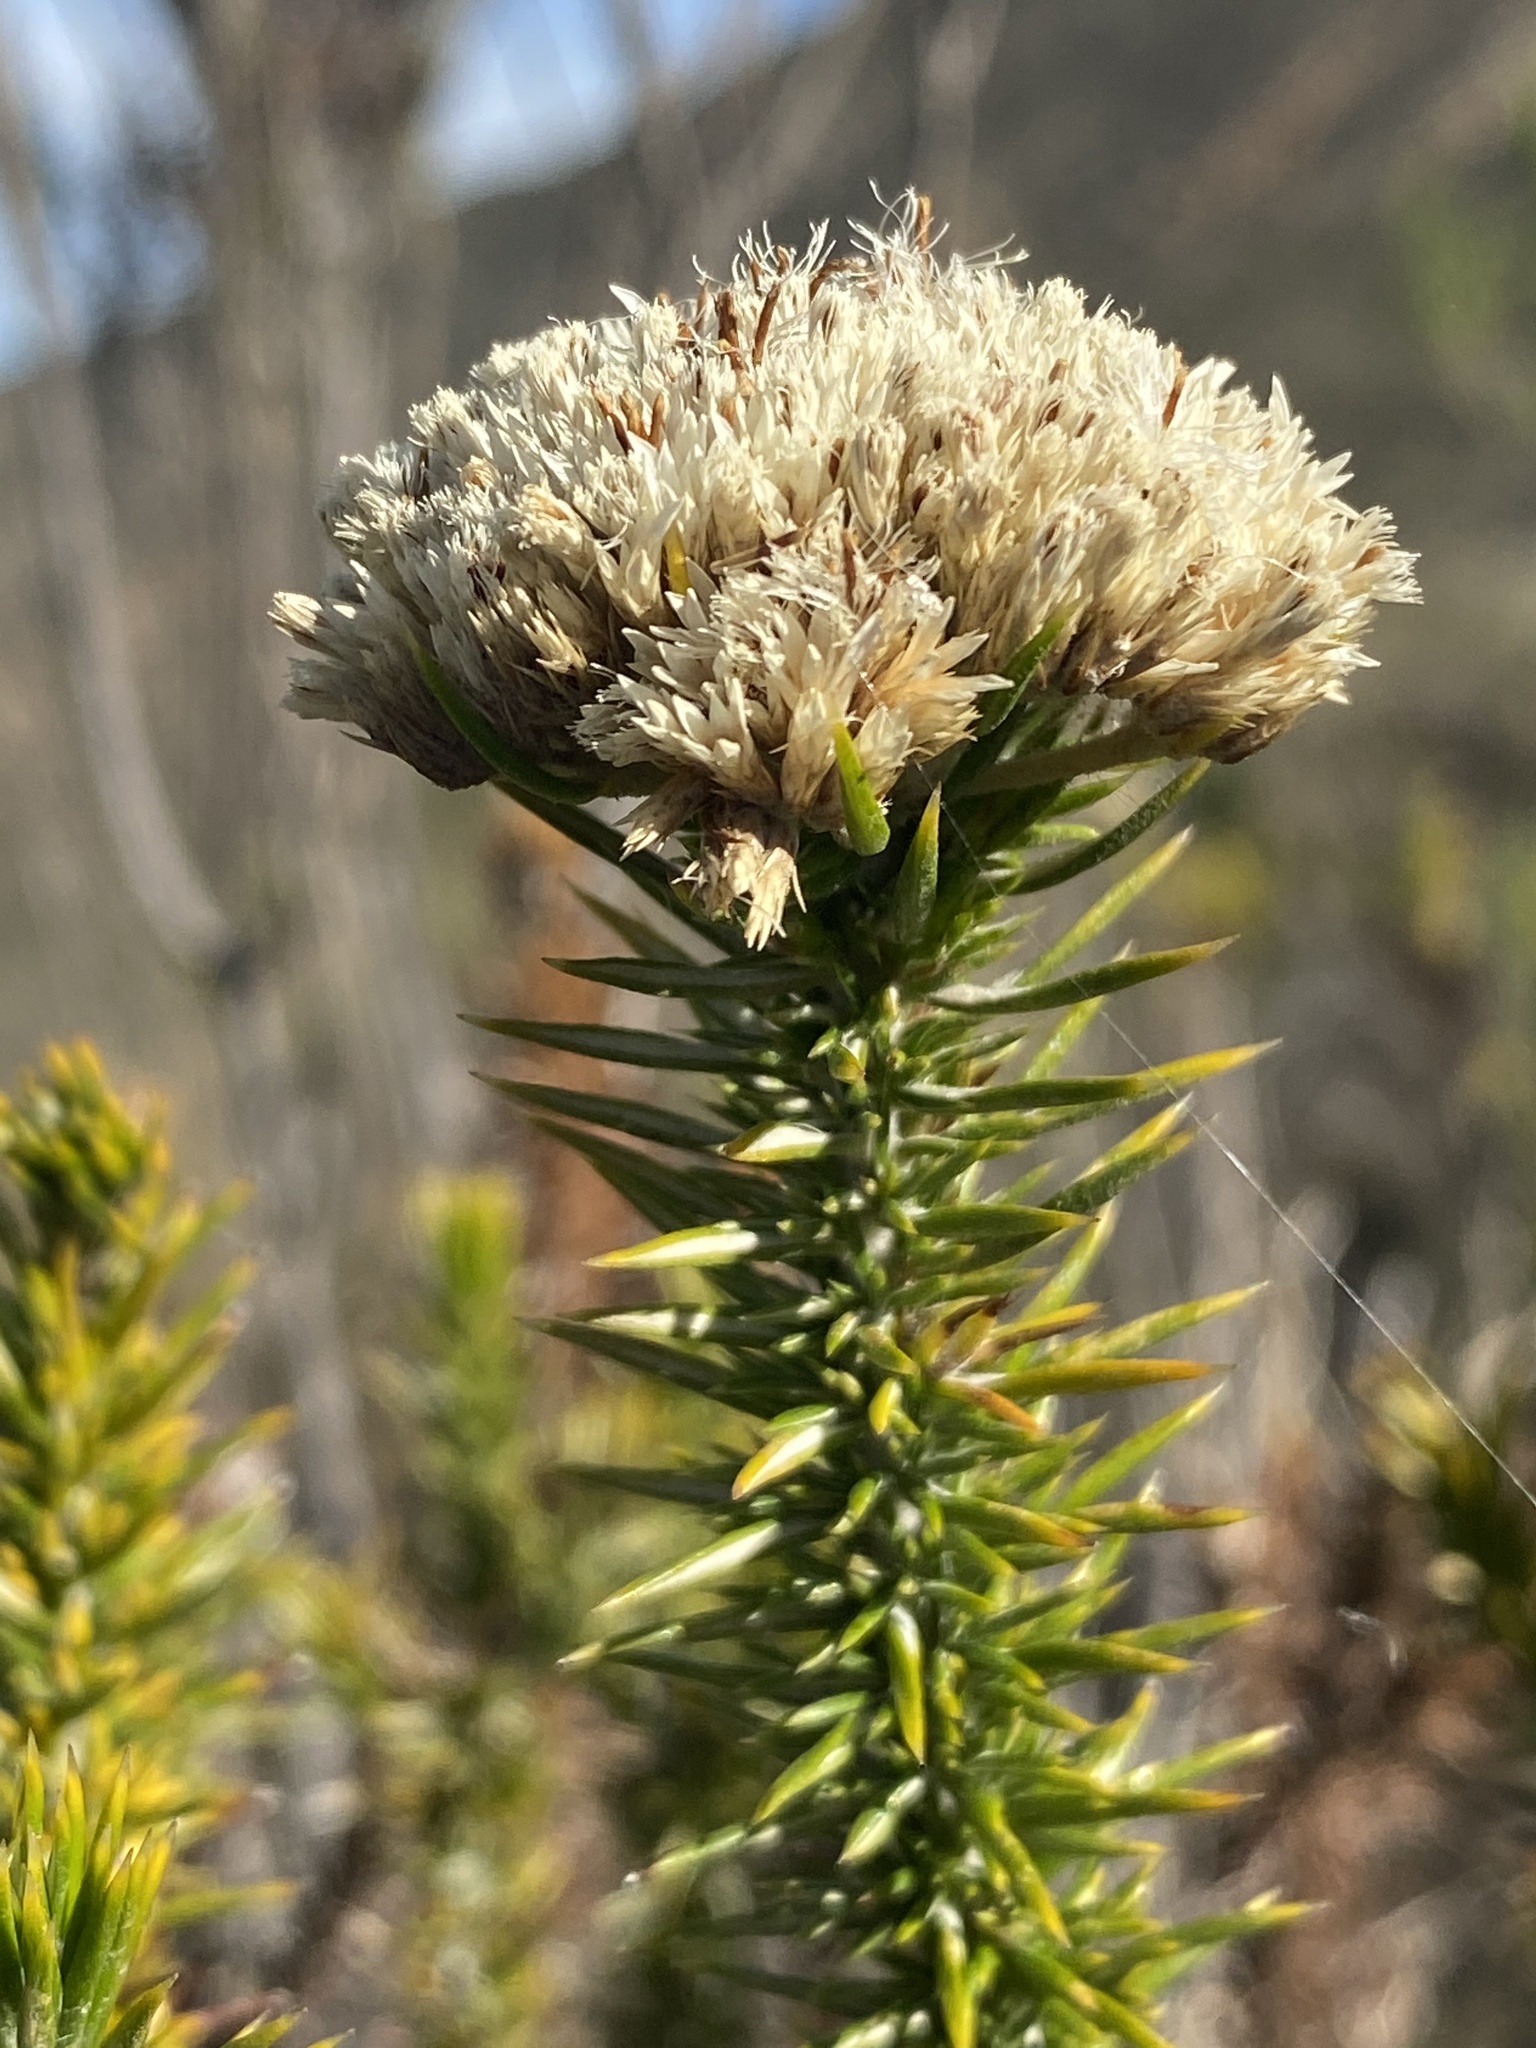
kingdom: Plantae
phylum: Tracheophyta
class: Magnoliopsida
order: Asterales
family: Asteraceae
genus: Metalasia
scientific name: Metalasia acuta
